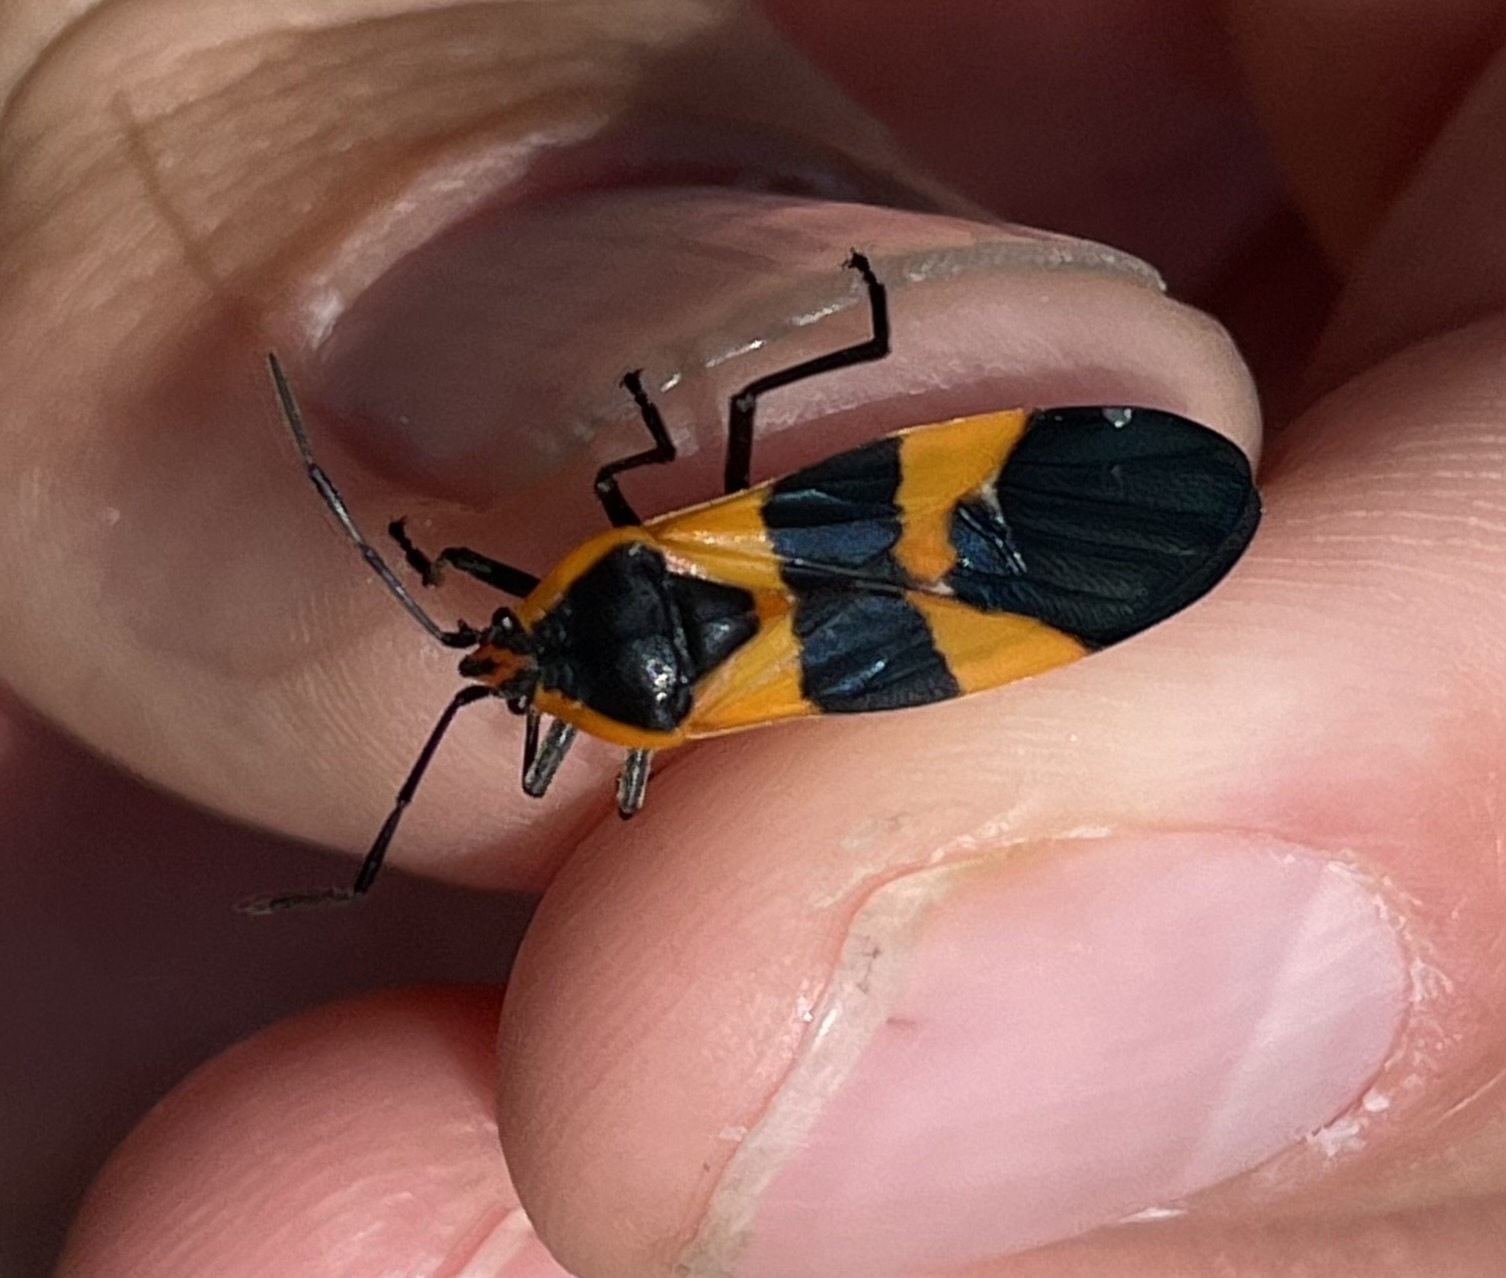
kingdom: Animalia
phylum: Arthropoda
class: Insecta
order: Hemiptera
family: Lygaeidae
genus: Oncopeltus
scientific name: Oncopeltus fasciatus
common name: Large milkweed bug
